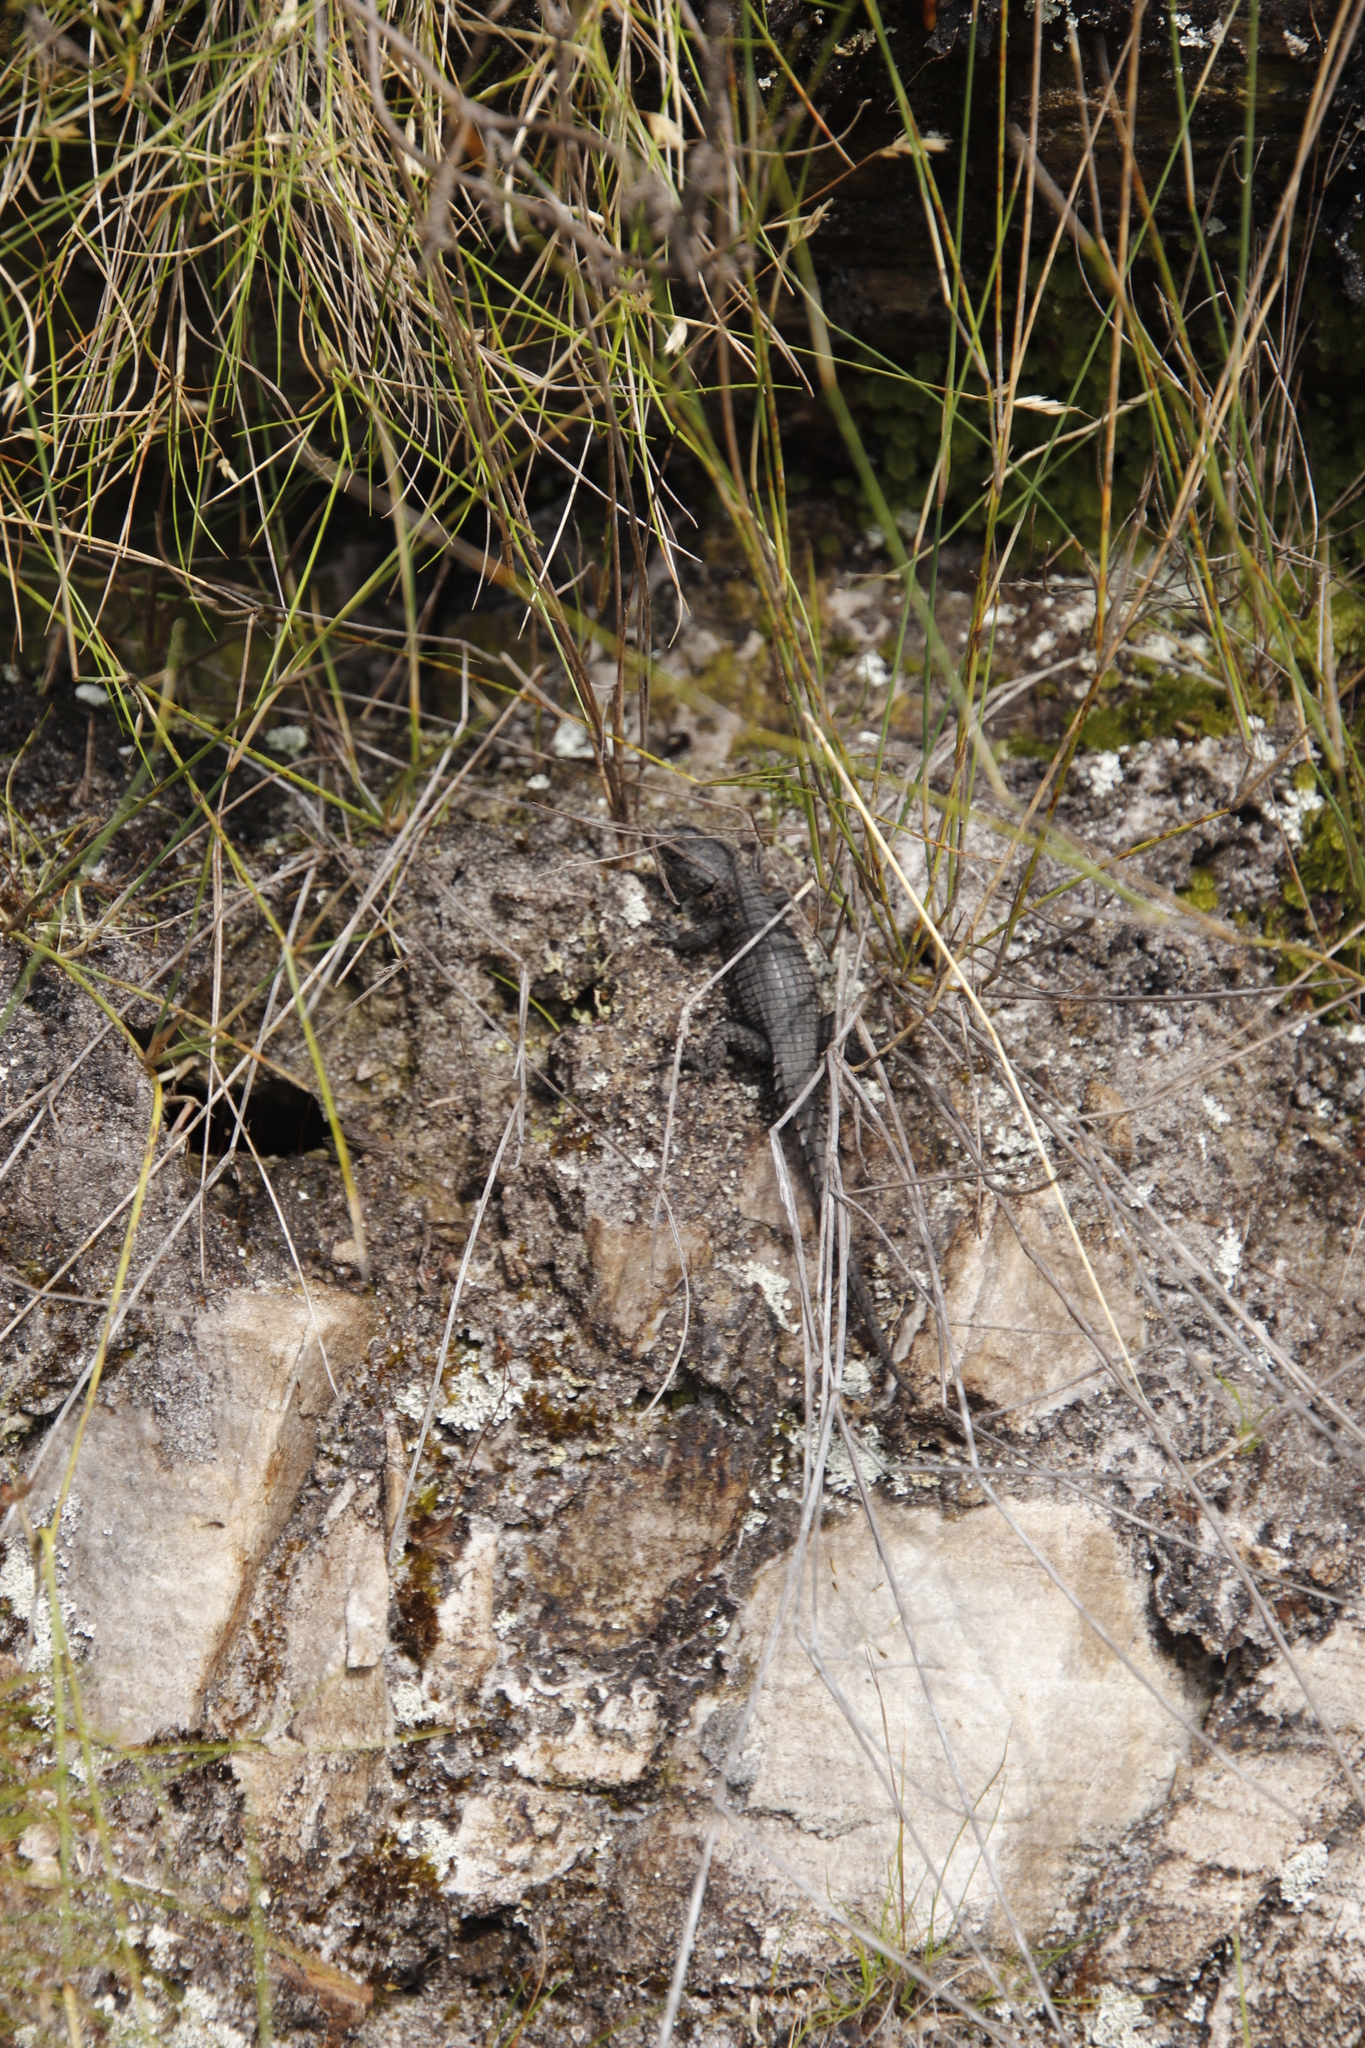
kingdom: Animalia
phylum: Chordata
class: Squamata
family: Cordylidae
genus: Cordylus
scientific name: Cordylus niger
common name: Black girdled lizard
